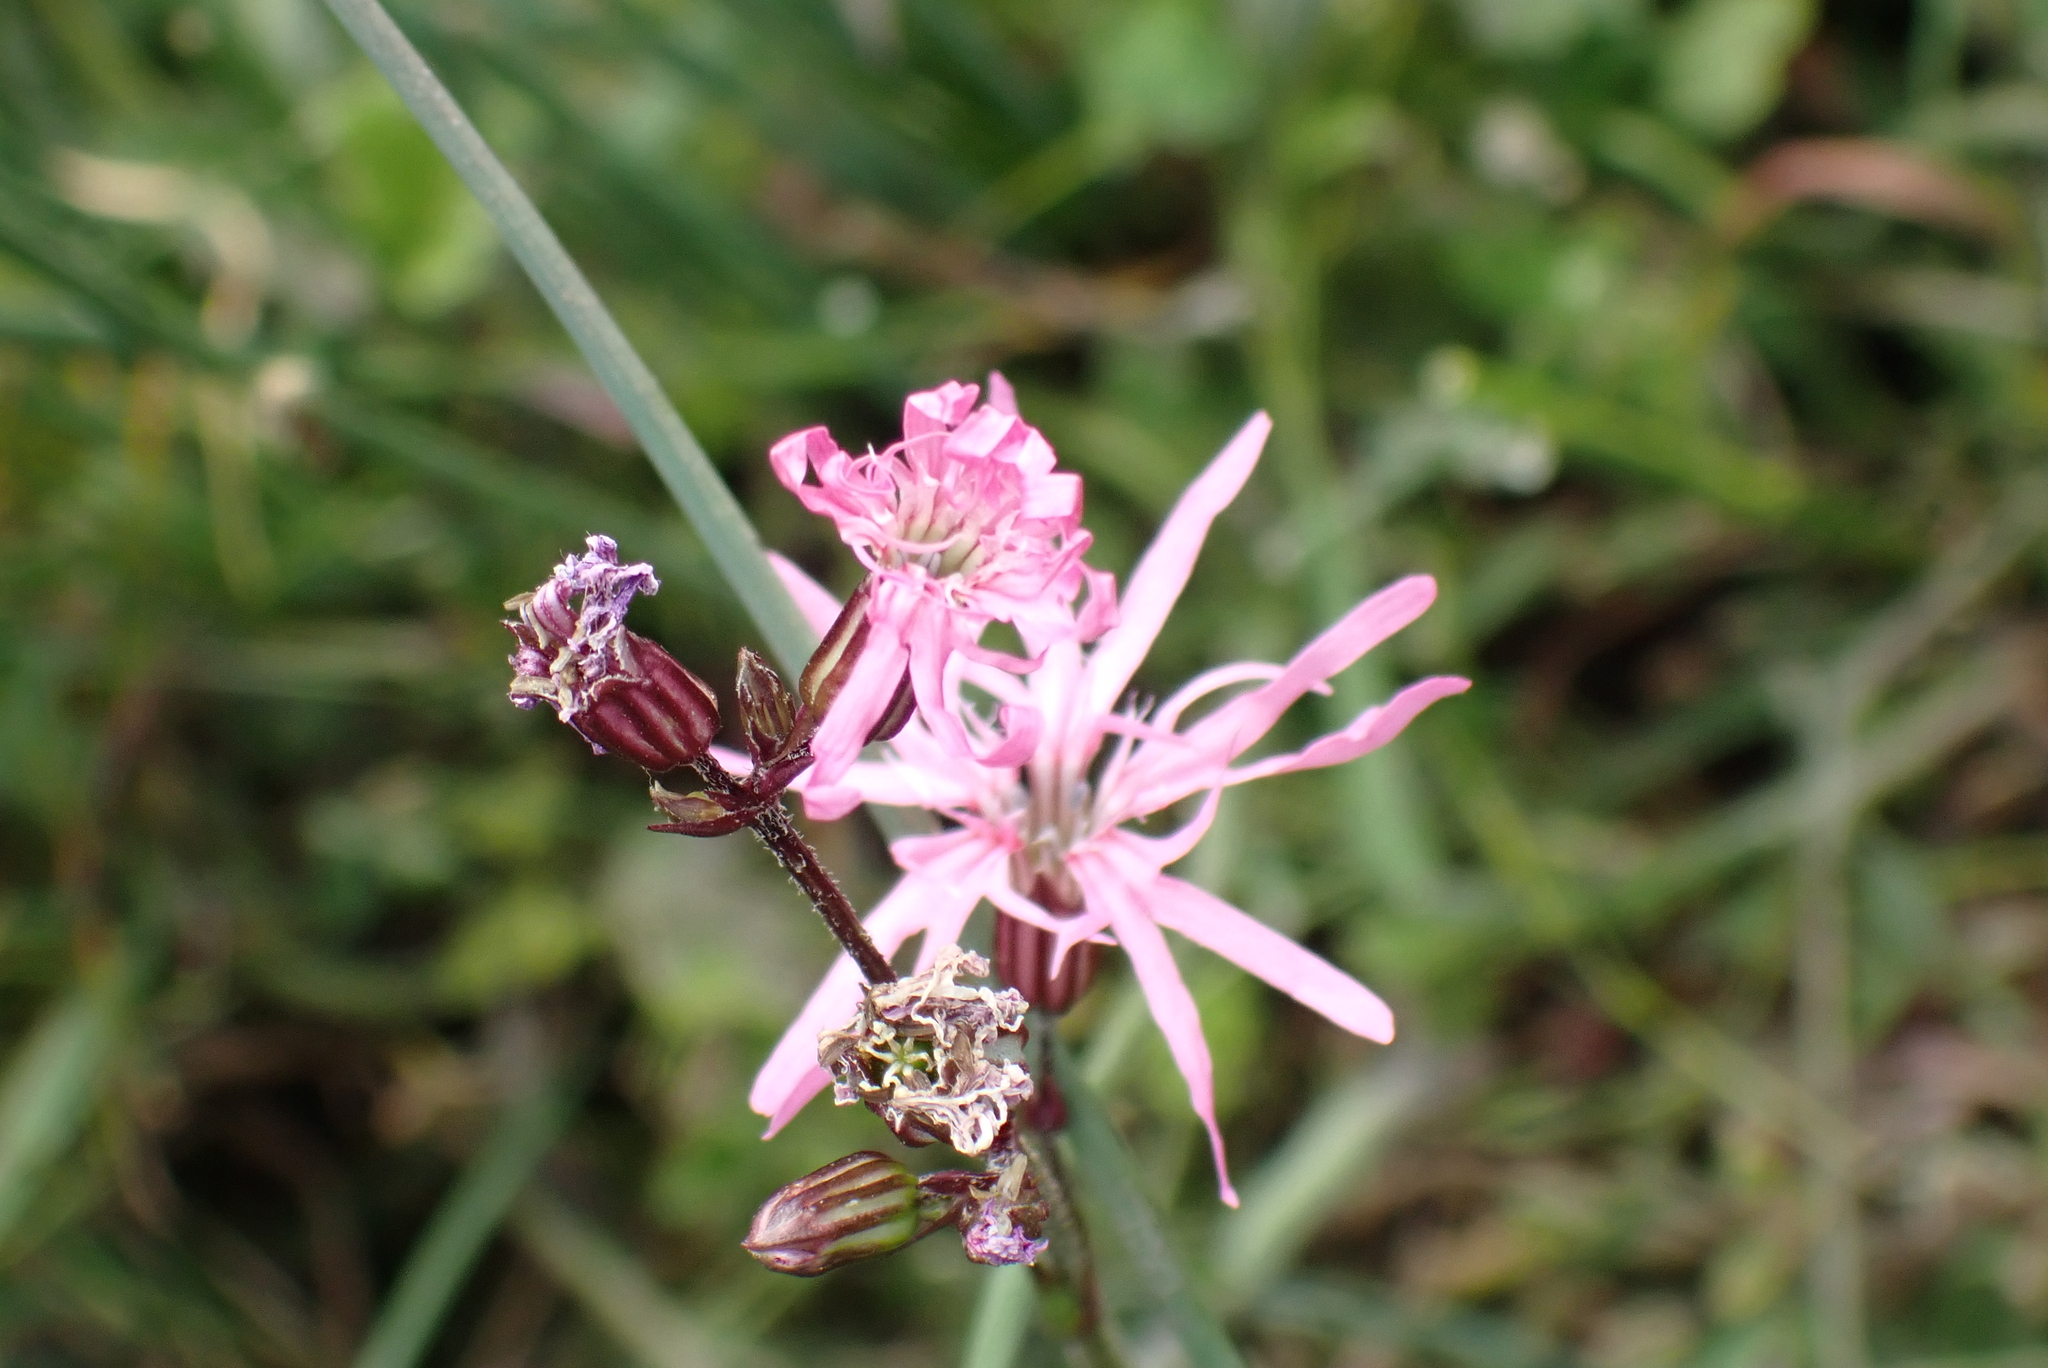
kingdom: Plantae
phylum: Tracheophyta
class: Magnoliopsida
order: Caryophyllales
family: Caryophyllaceae
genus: Silene
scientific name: Silene flos-cuculi
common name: Ragged-robin
